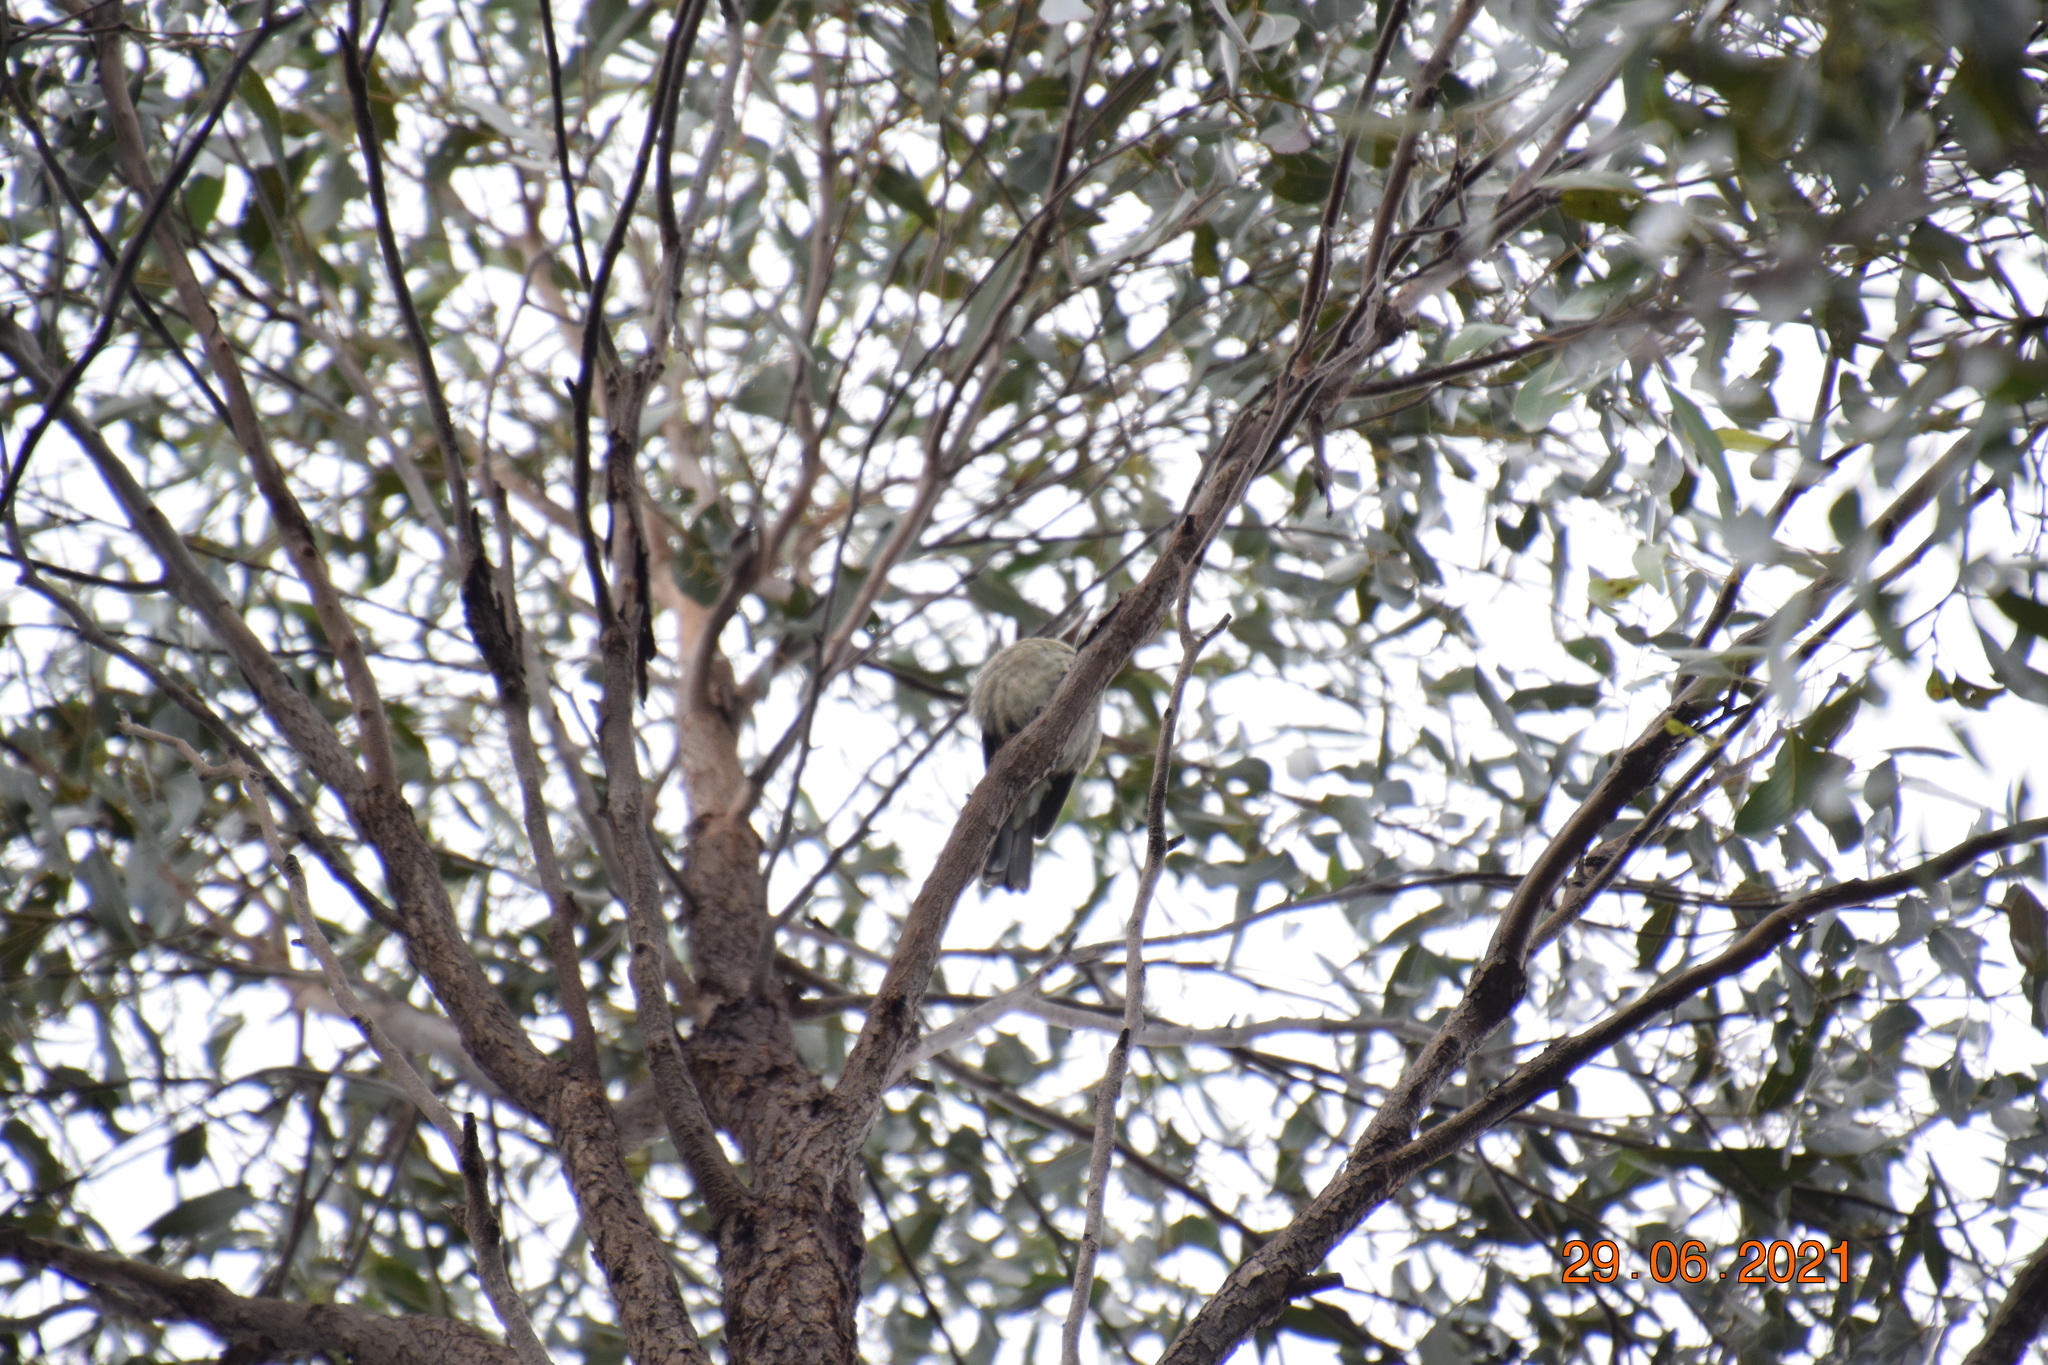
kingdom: Animalia
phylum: Chordata
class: Aves
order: Passeriformes
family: Cracticidae
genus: Cracticus
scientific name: Cracticus torquatus
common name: Grey butcherbird
